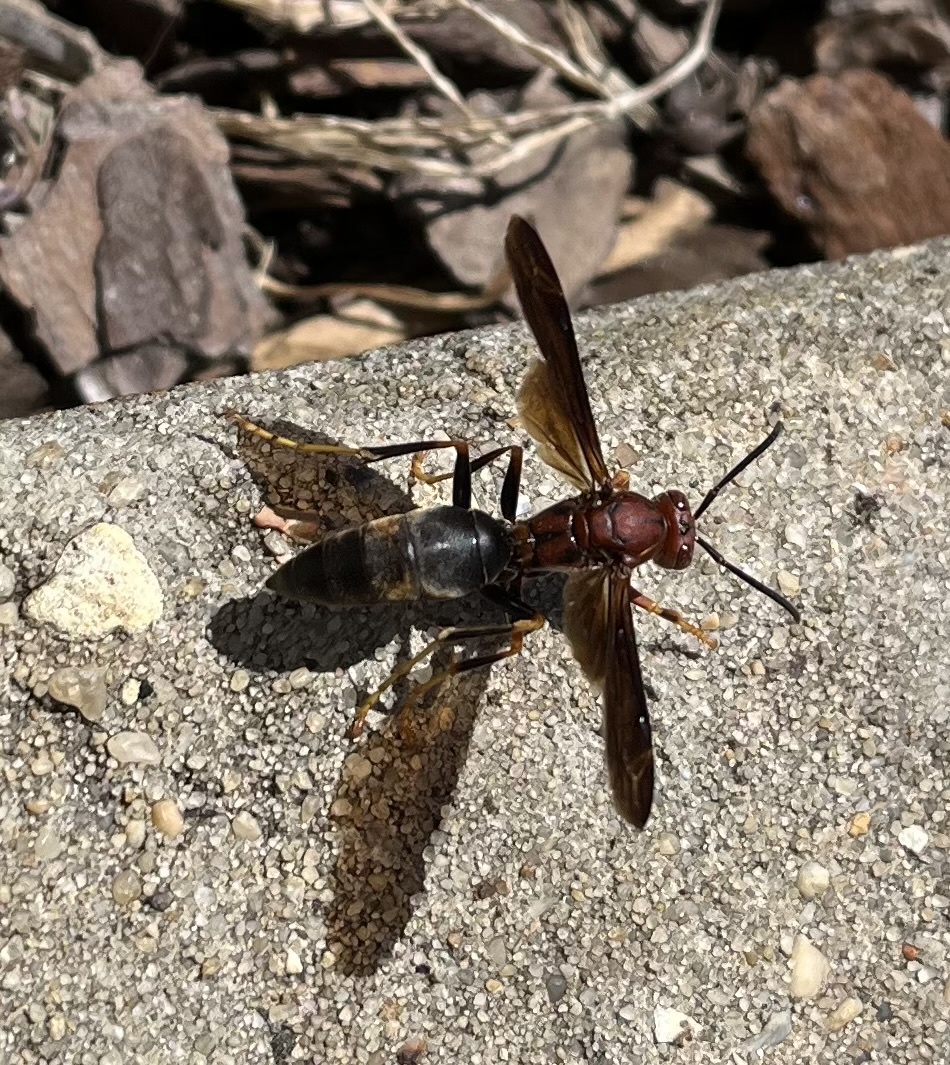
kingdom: Animalia
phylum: Arthropoda
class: Insecta
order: Hymenoptera
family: Eumenidae
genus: Polistes
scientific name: Polistes metricus
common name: Metric paper wasp
